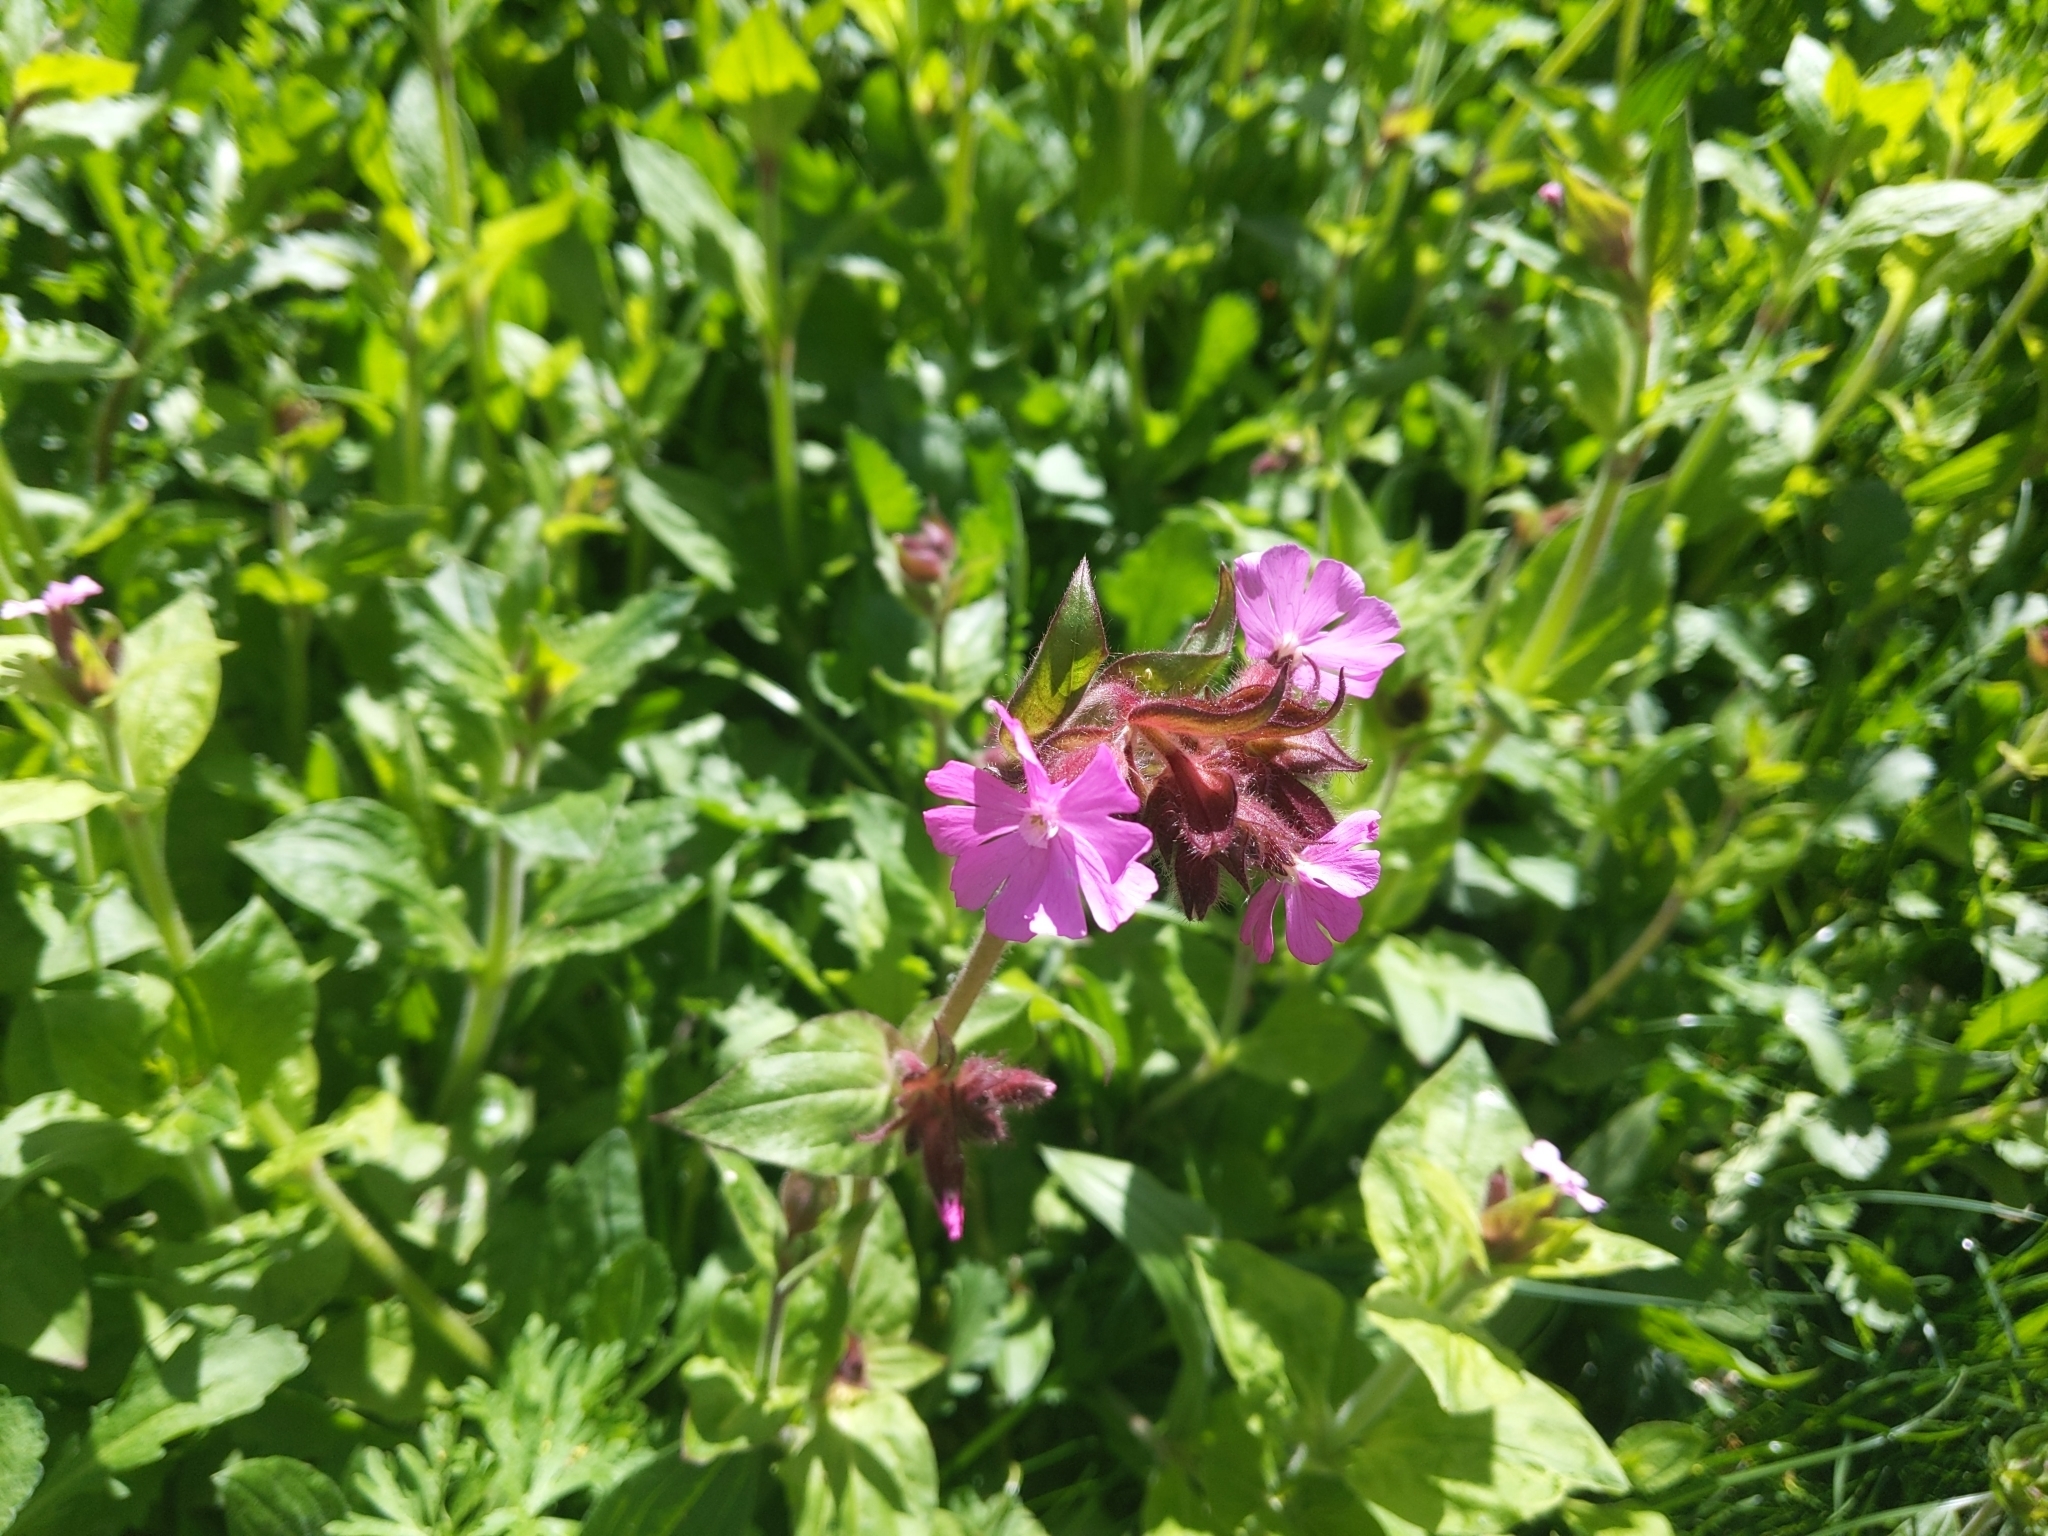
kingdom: Plantae
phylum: Tracheophyta
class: Magnoliopsida
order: Caryophyllales
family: Caryophyllaceae
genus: Silene
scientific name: Silene dioica
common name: Red campion
